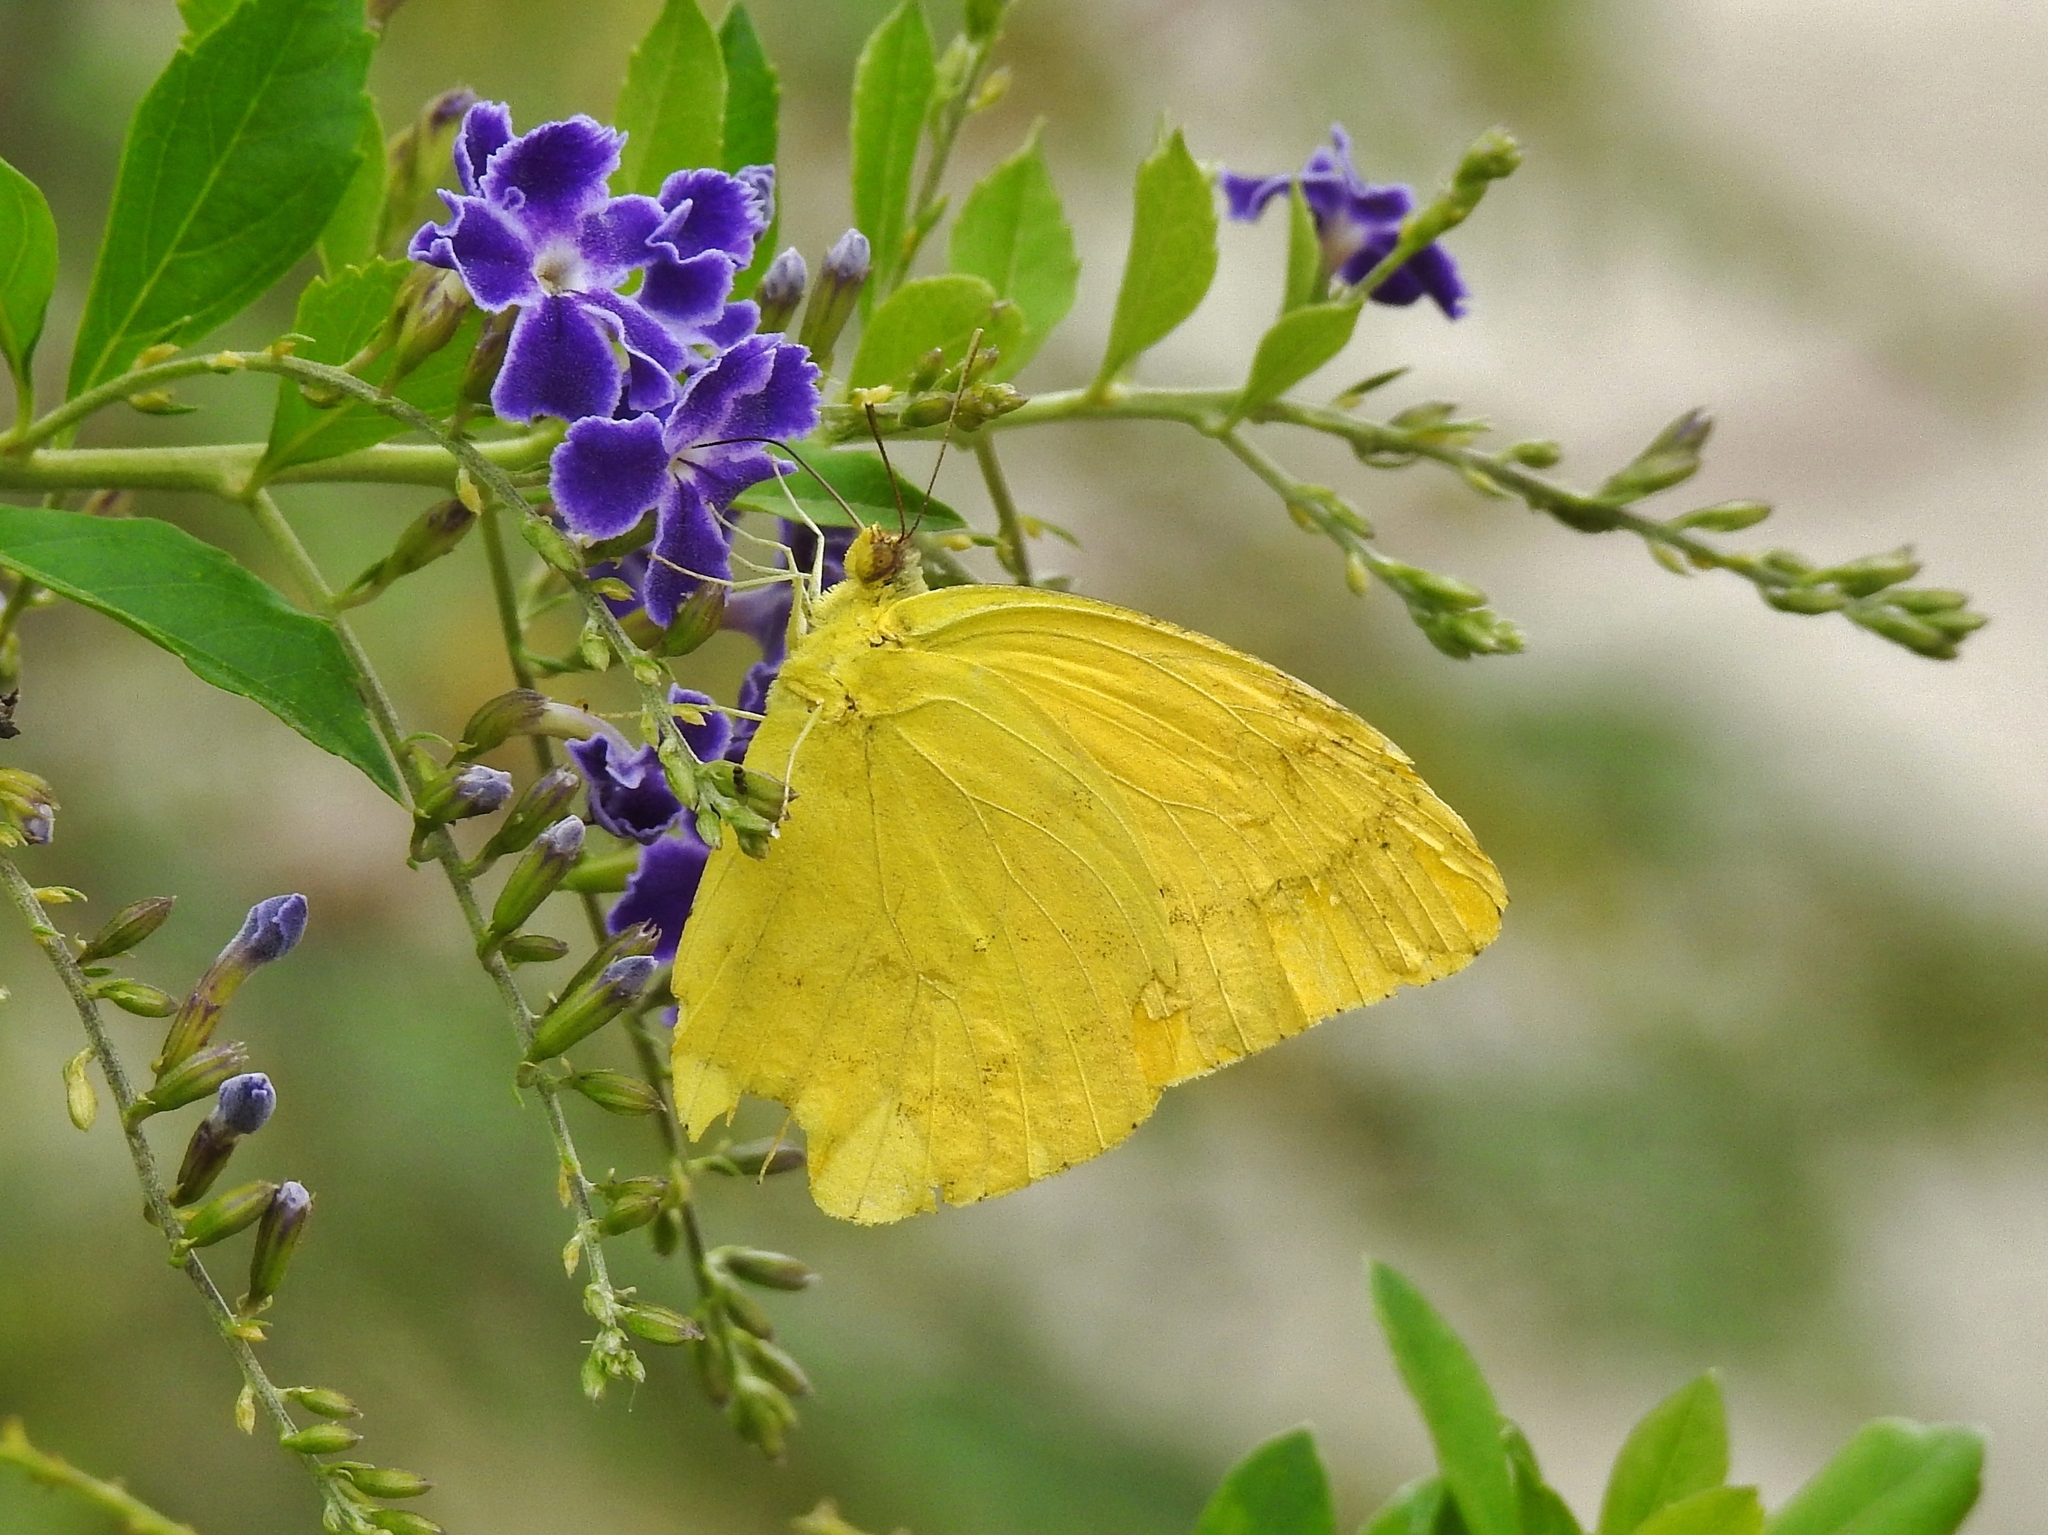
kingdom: Animalia
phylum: Arthropoda
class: Insecta
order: Lepidoptera
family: Pieridae
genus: Phoebis
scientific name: Phoebis agarithe
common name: Large orange sulphur
